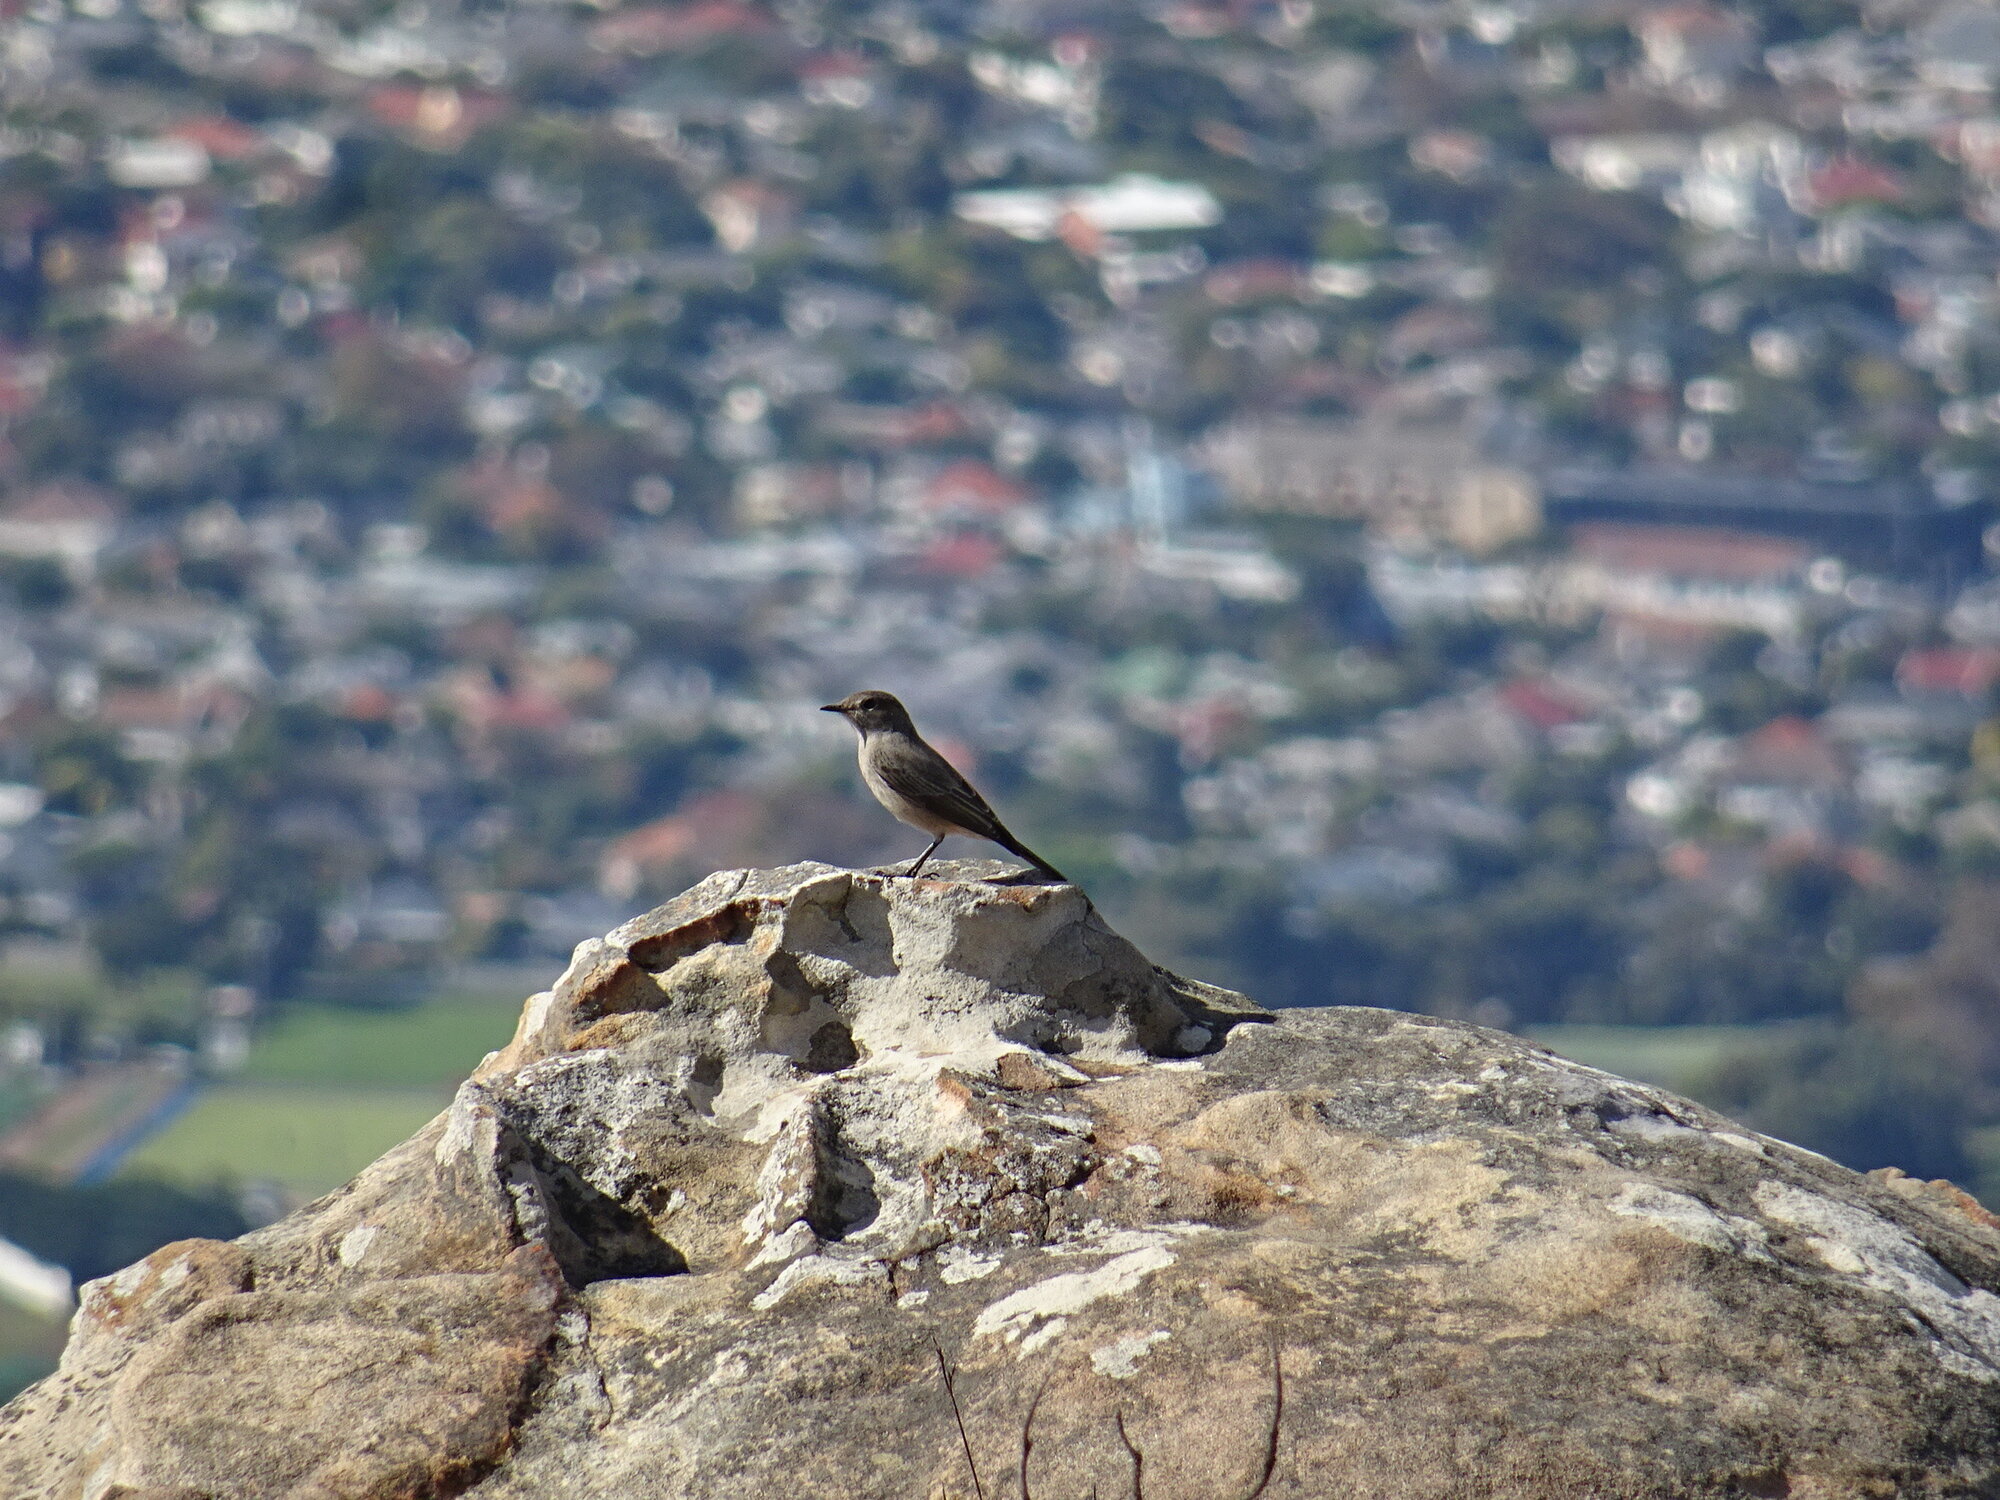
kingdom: Animalia
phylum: Chordata
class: Aves
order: Passeriformes
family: Muscicapidae
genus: Oenanthe
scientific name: Oenanthe familiaris
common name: Familiar chat
